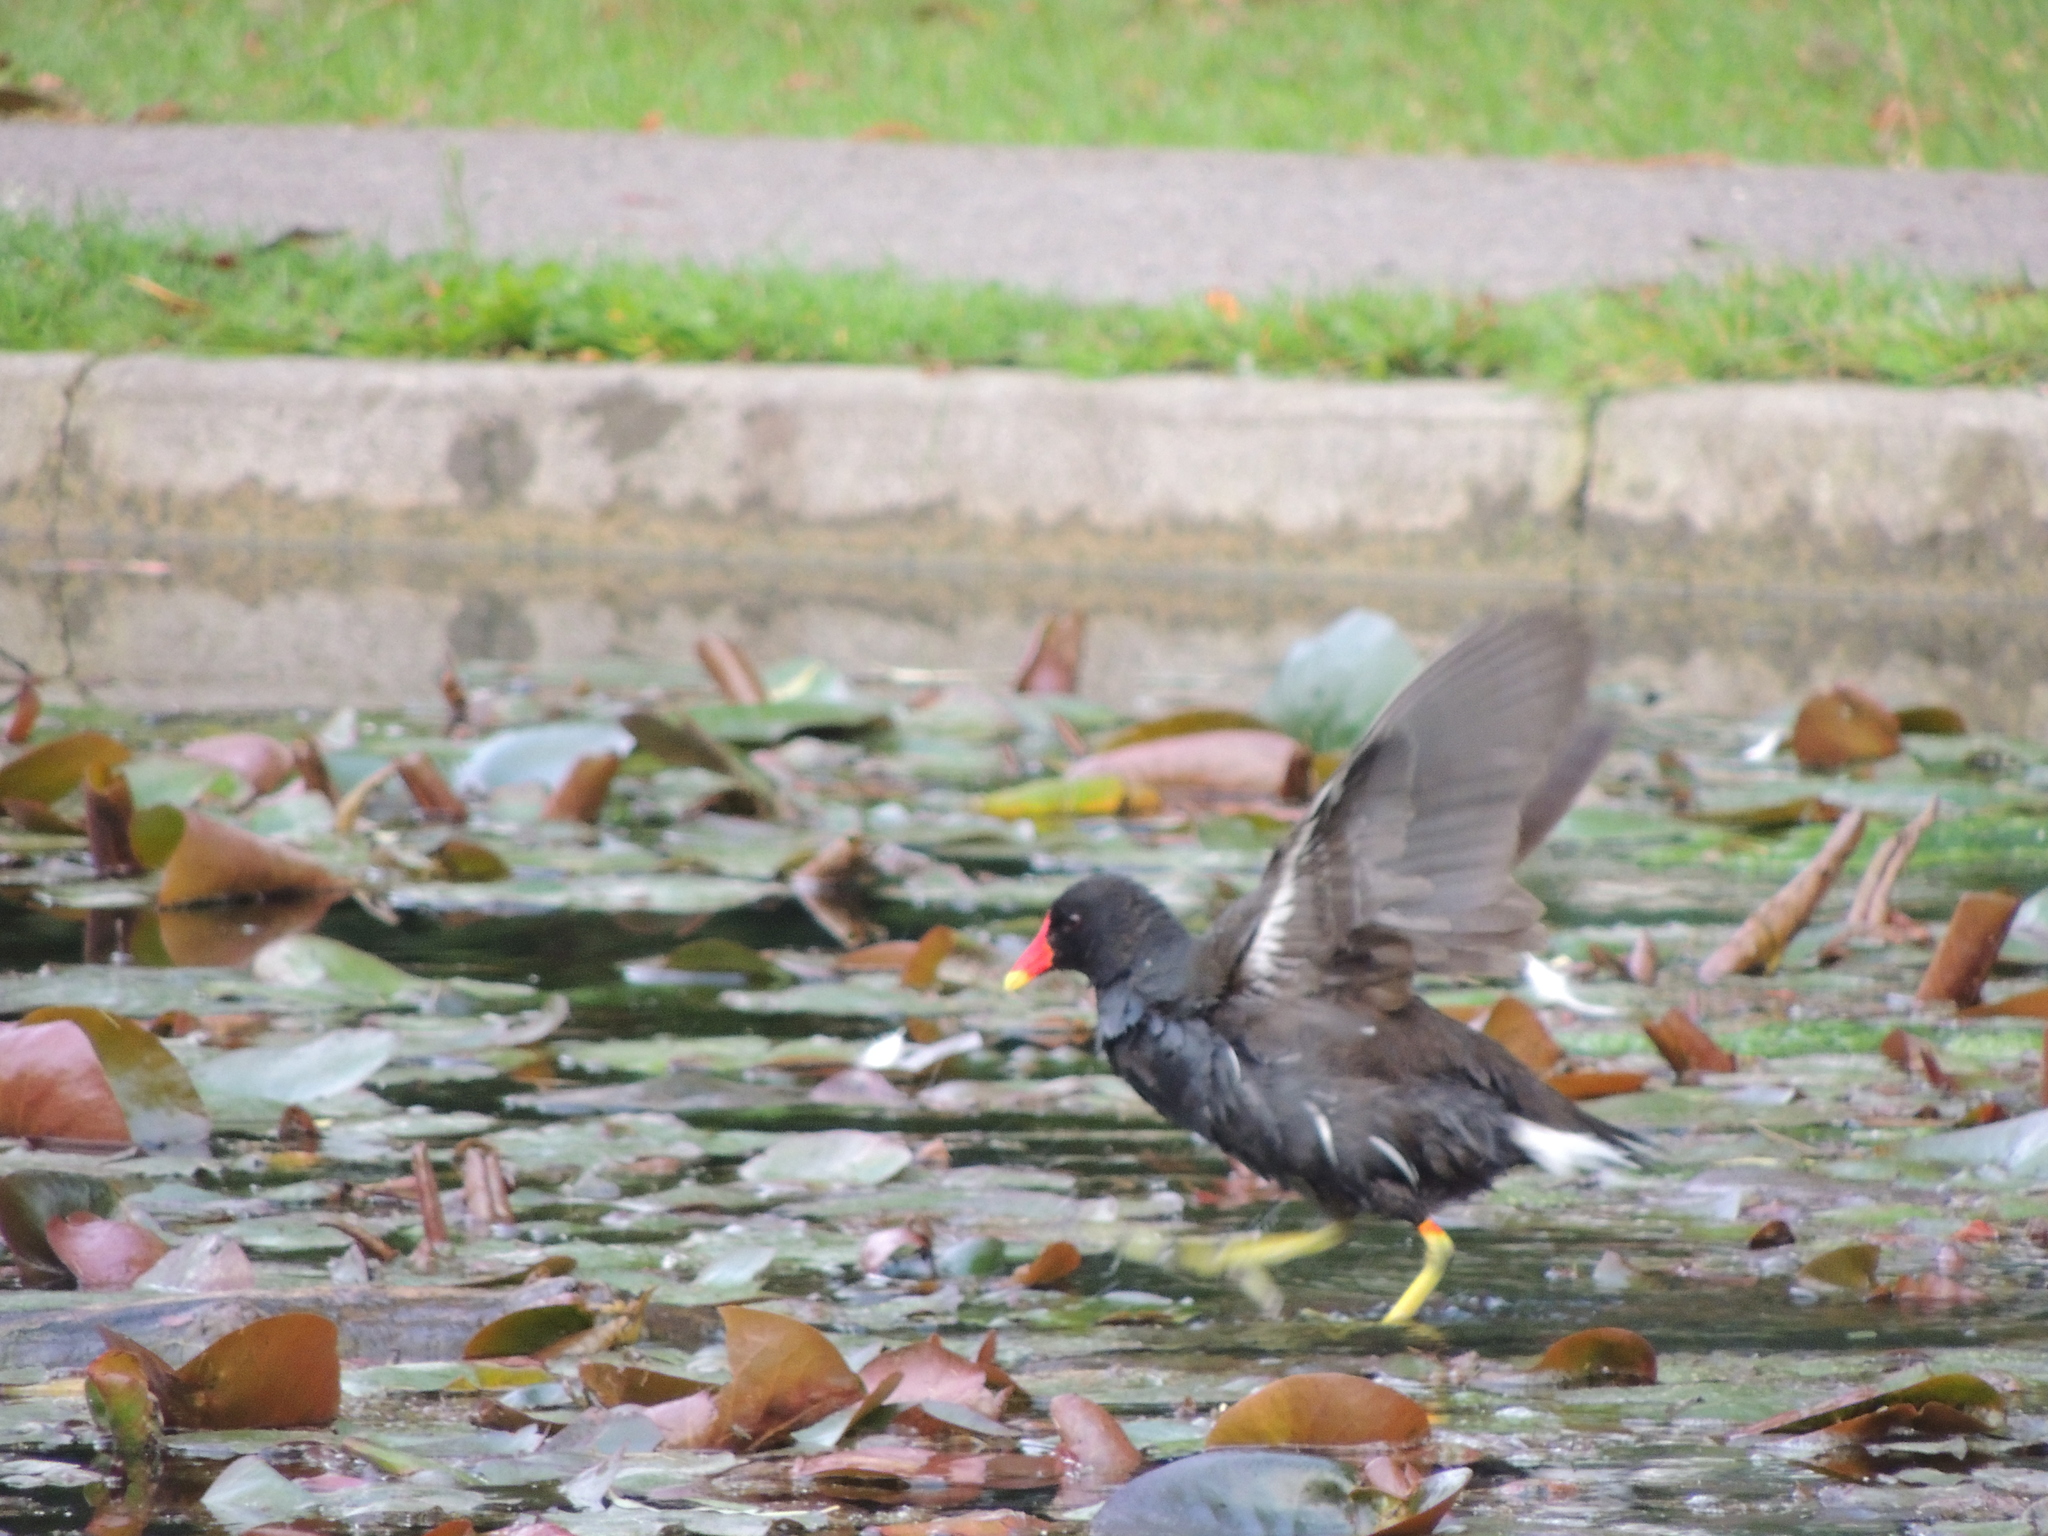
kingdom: Animalia
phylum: Chordata
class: Aves
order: Gruiformes
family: Rallidae
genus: Gallinula
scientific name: Gallinula chloropus
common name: Common moorhen
